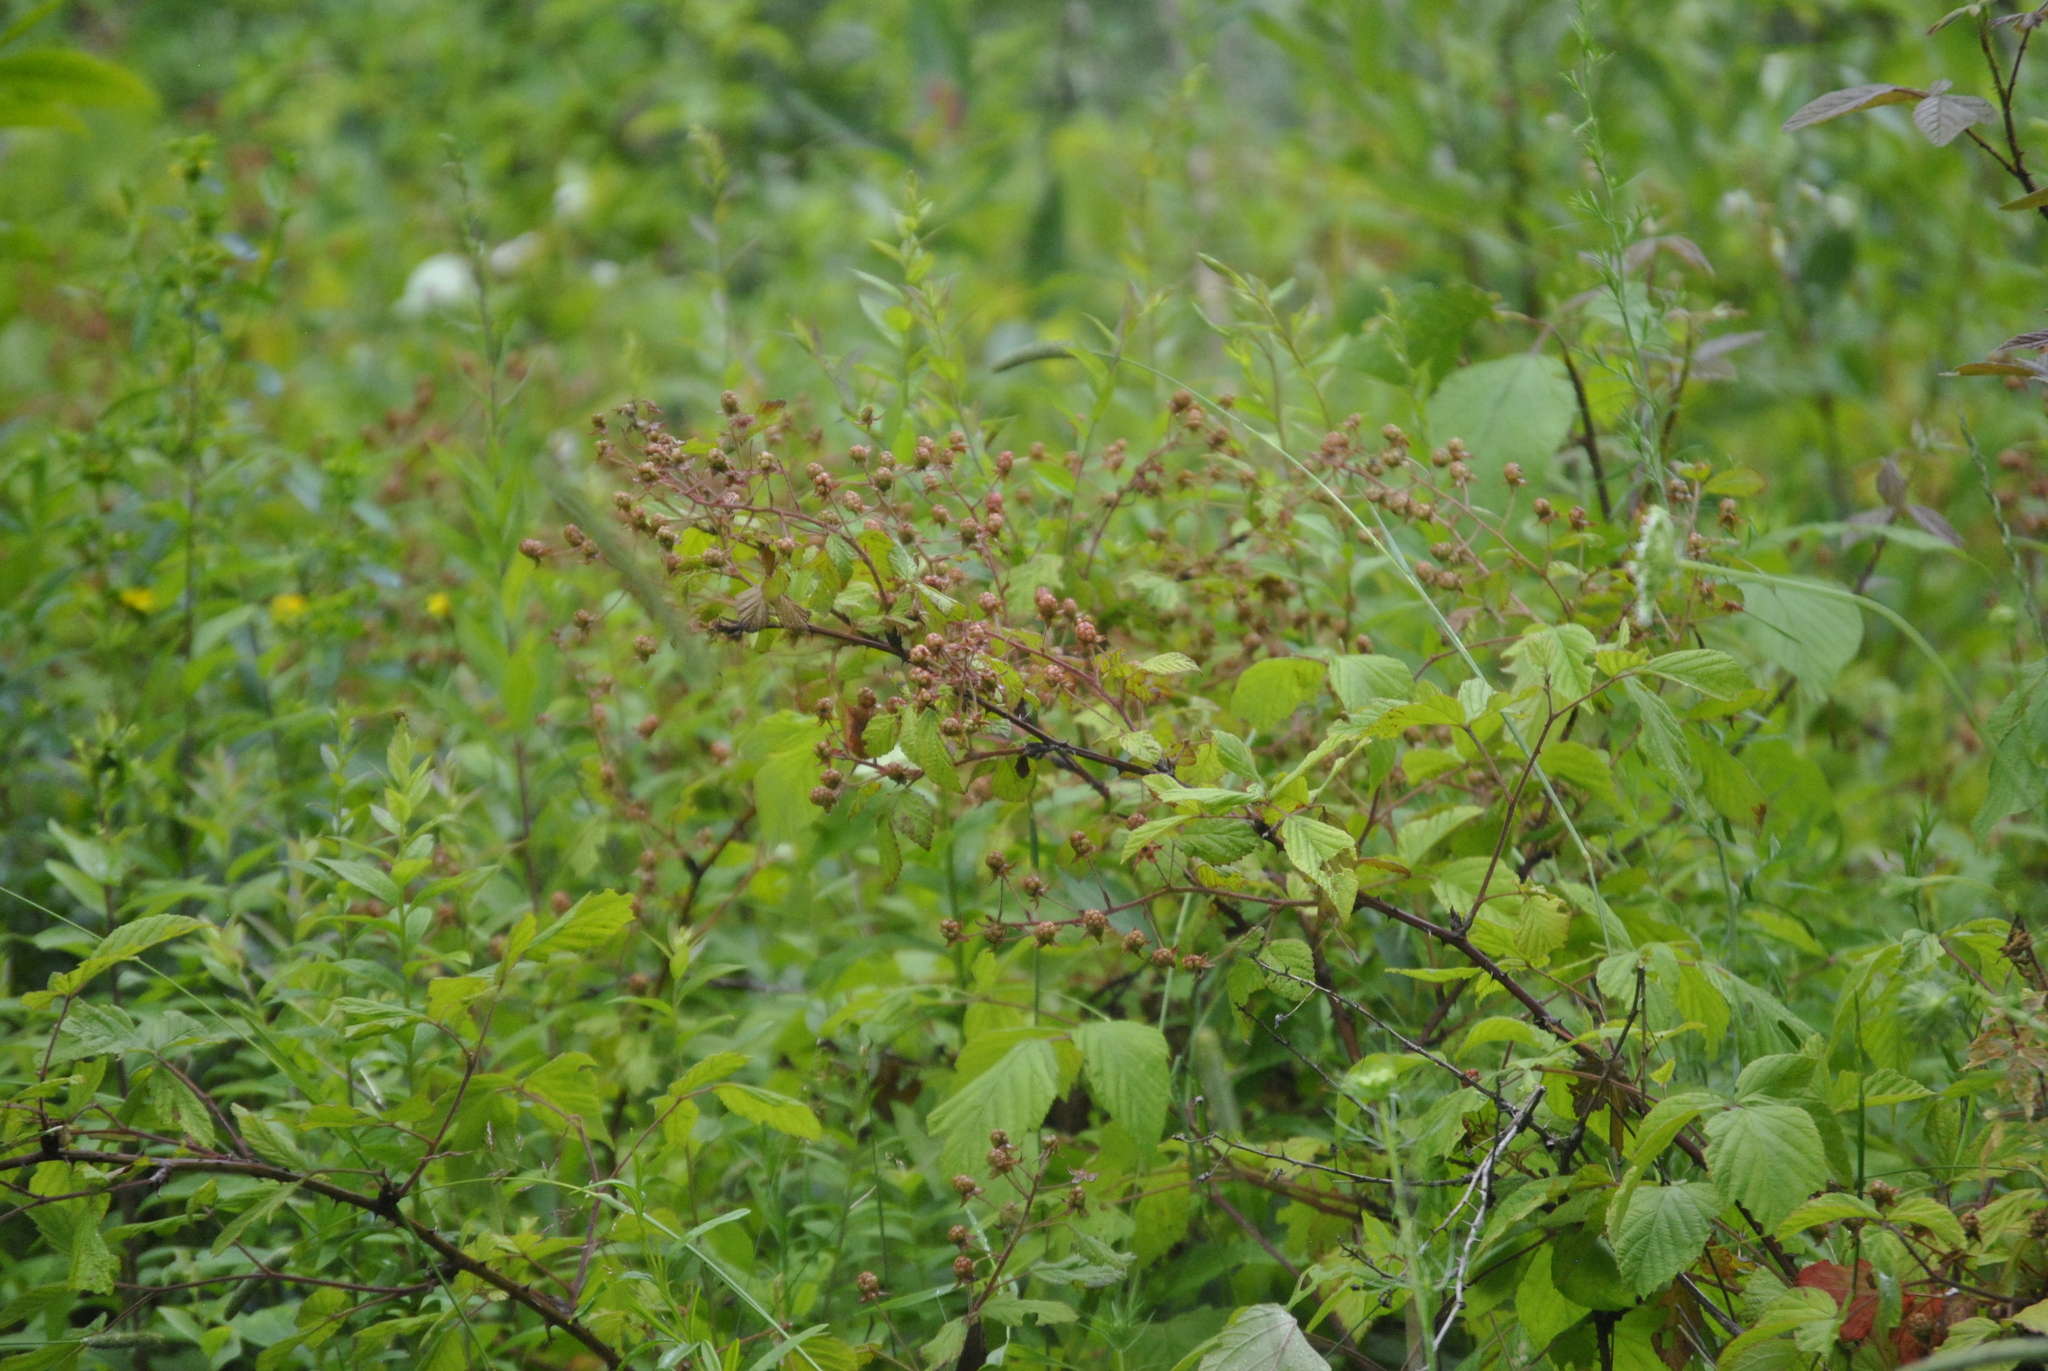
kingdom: Plantae
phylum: Tracheophyta
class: Magnoliopsida
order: Rosales
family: Rosaceae
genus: Rubus
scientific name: Rubus allegheniensis
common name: Allegheny blackberry
